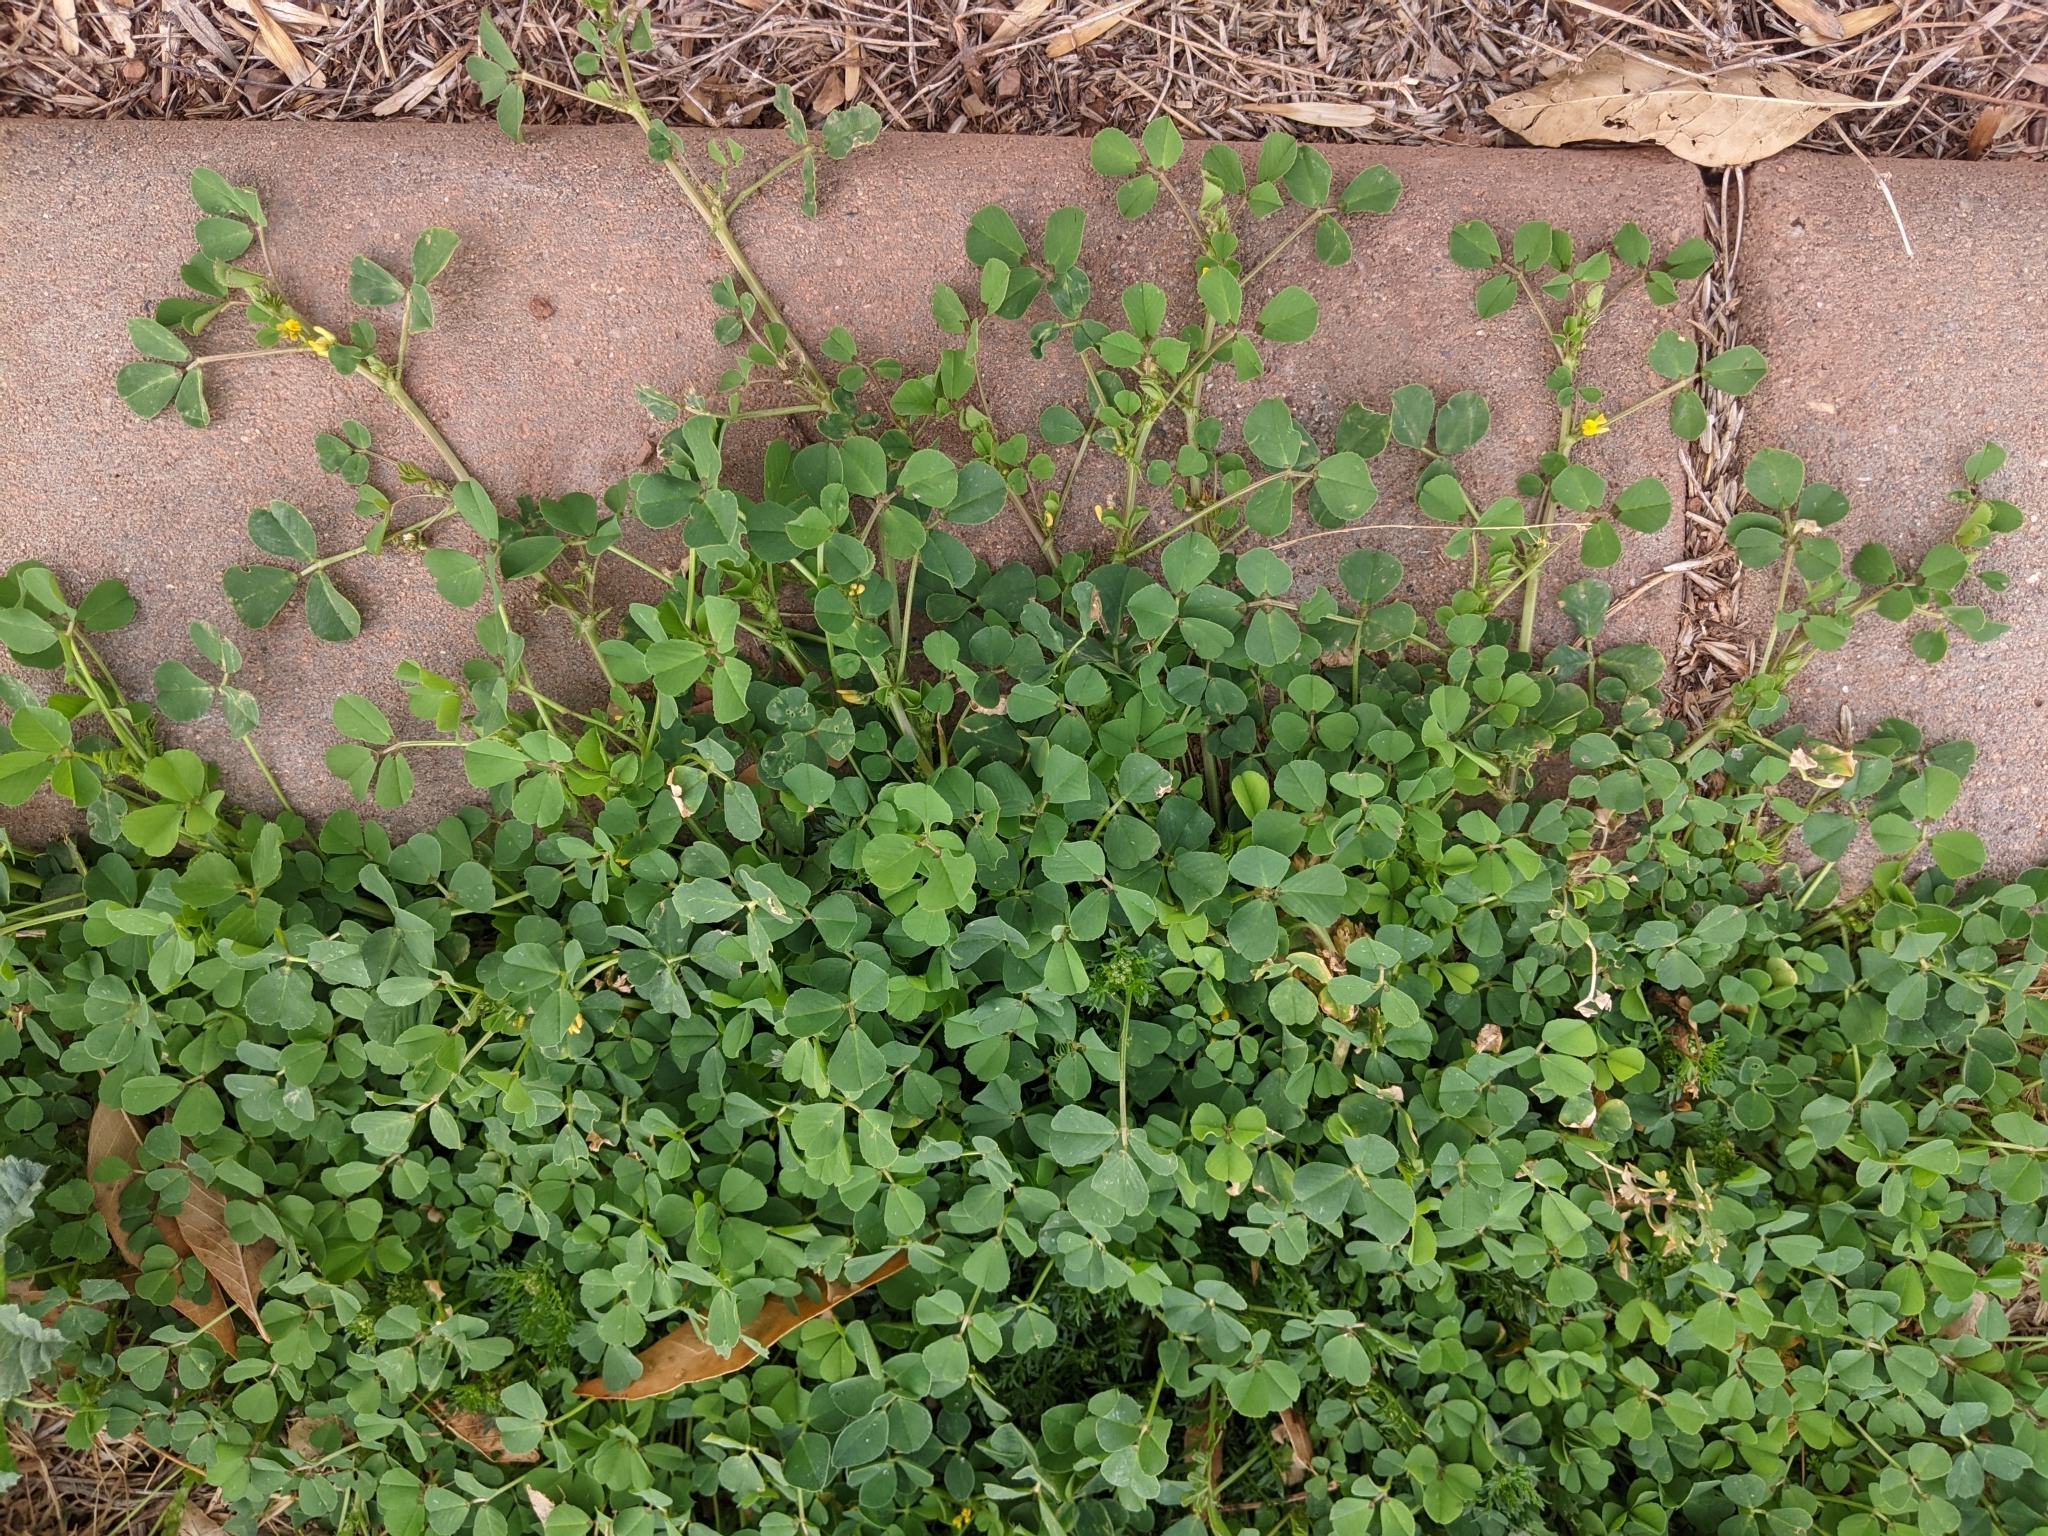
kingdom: Plantae
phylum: Tracheophyta
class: Magnoliopsida
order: Fabales
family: Fabaceae
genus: Medicago
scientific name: Medicago polymorpha
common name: Burclover
